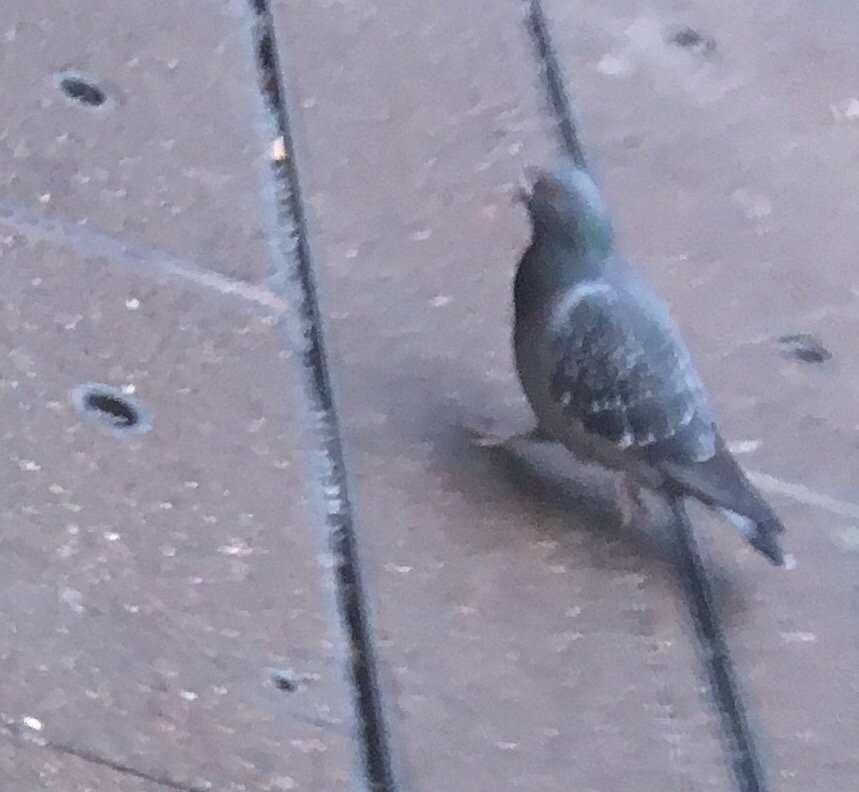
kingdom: Animalia
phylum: Chordata
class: Aves
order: Columbiformes
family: Columbidae
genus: Columba
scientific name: Columba livia
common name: Rock pigeon
